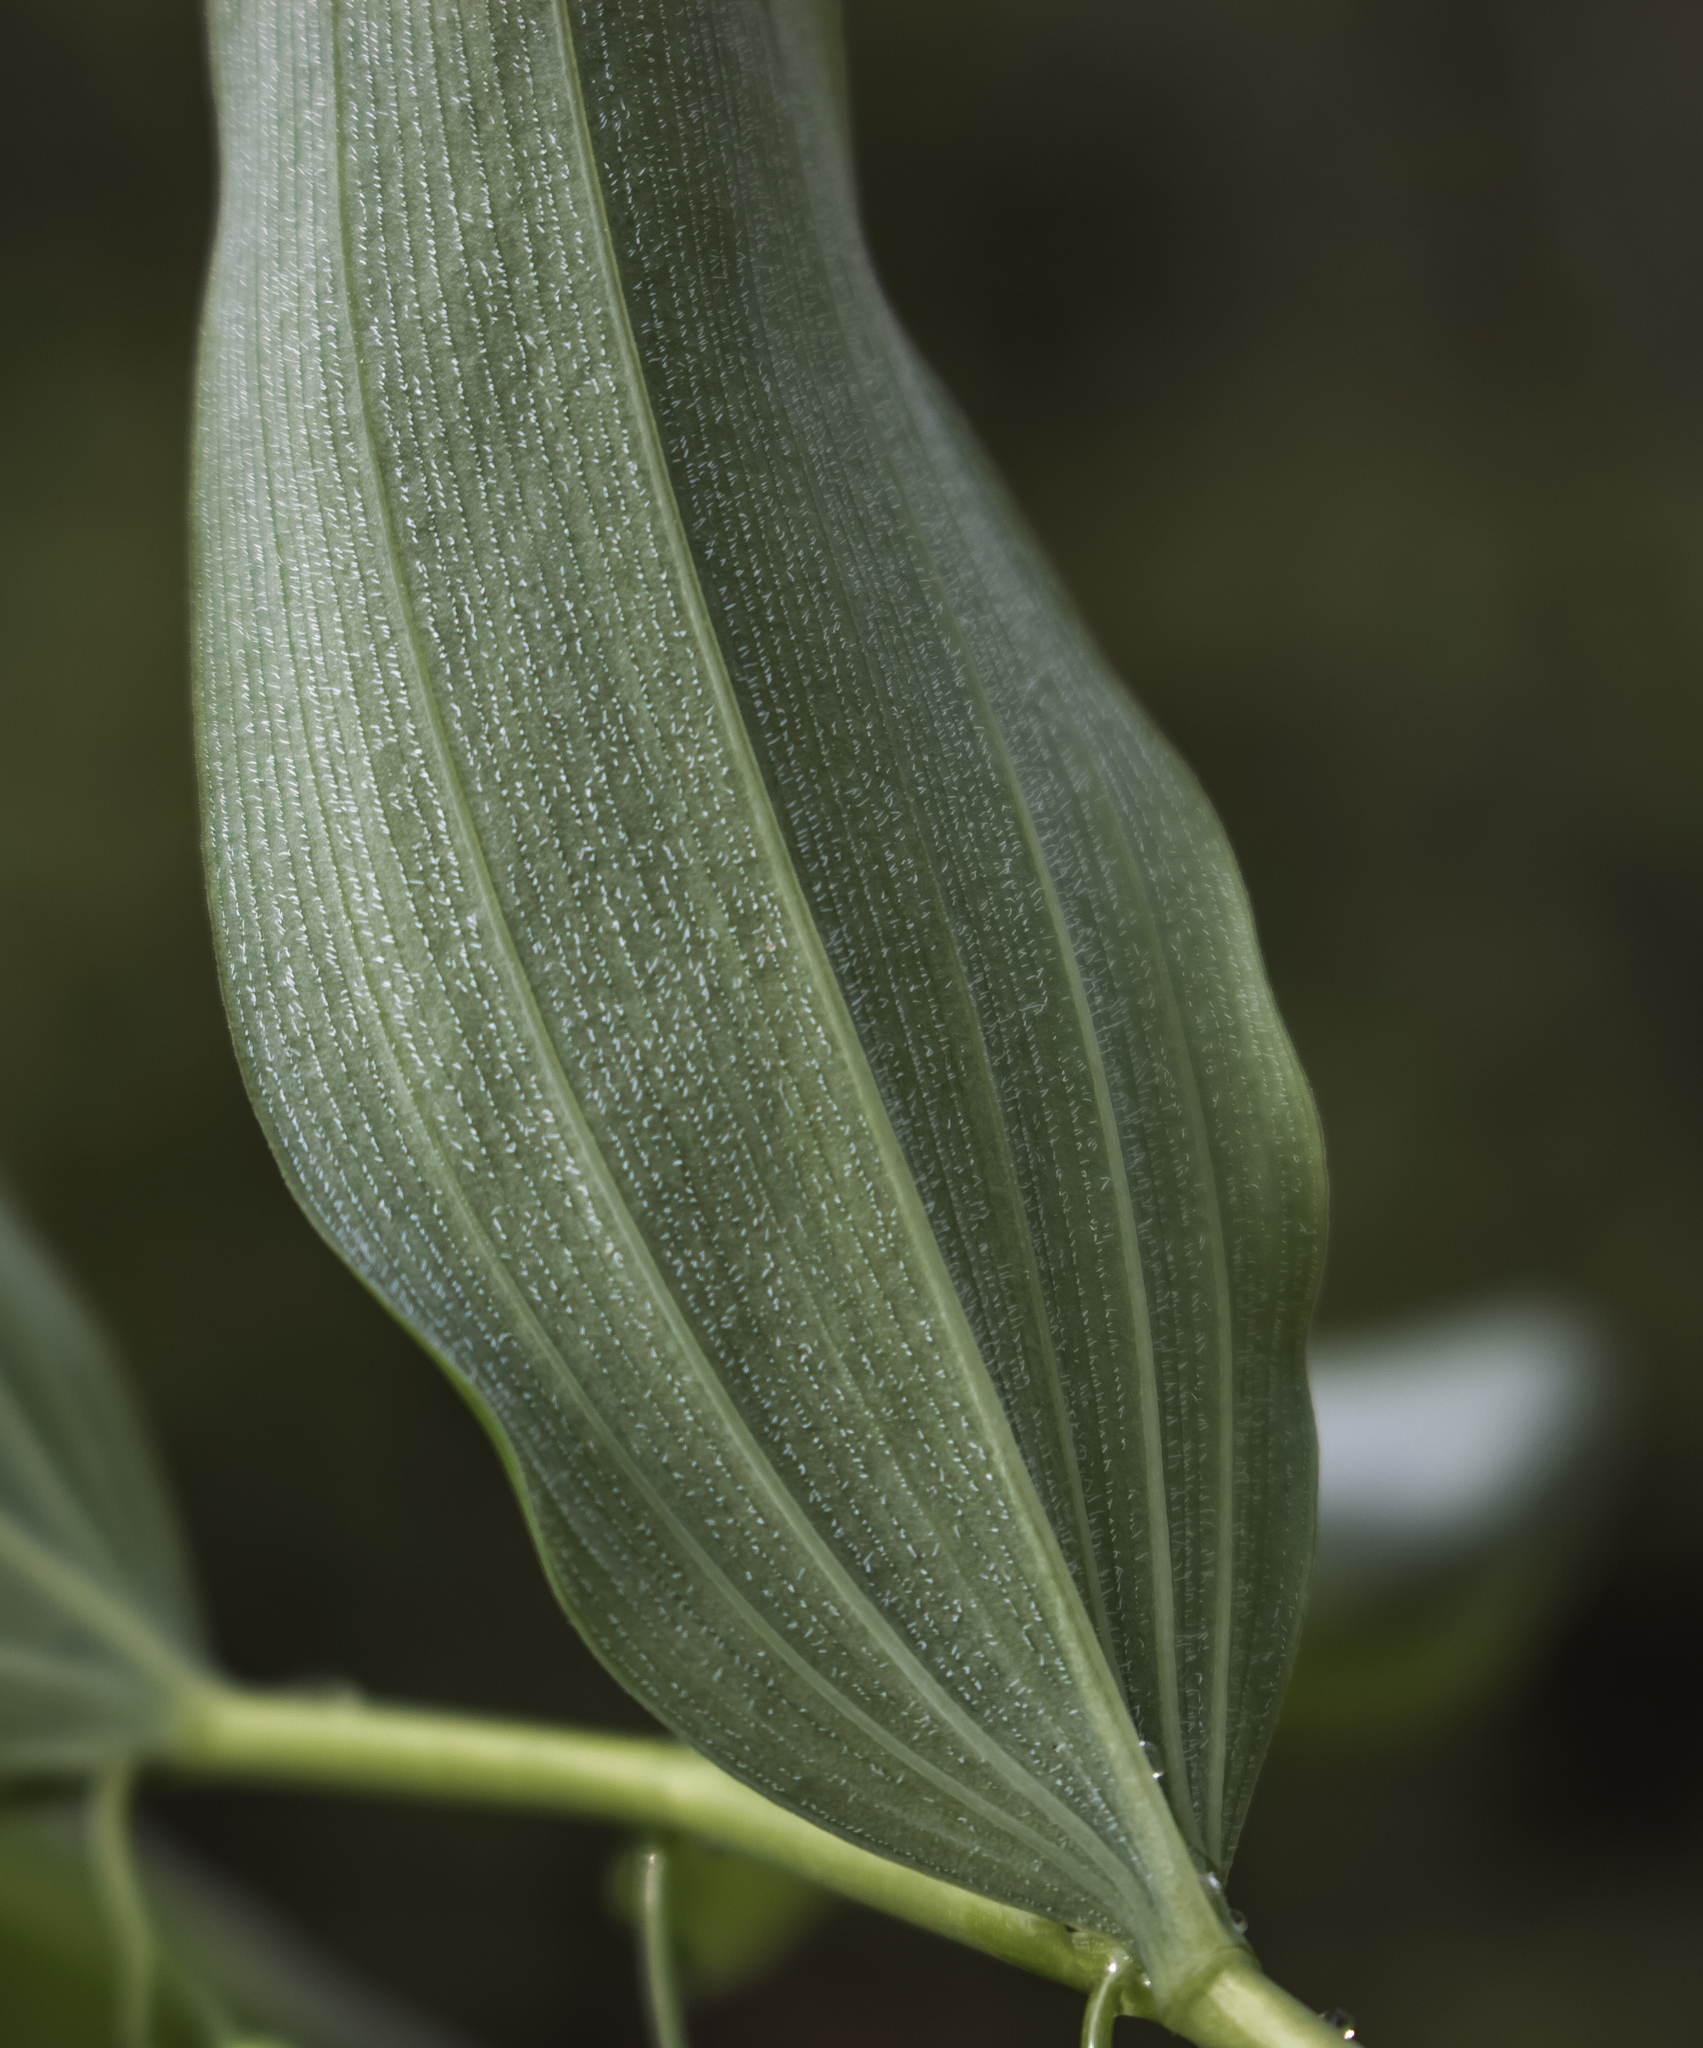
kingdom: Plantae
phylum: Tracheophyta
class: Liliopsida
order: Asparagales
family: Asparagaceae
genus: Polygonatum
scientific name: Polygonatum pubescens
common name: Downy solomon's seal
